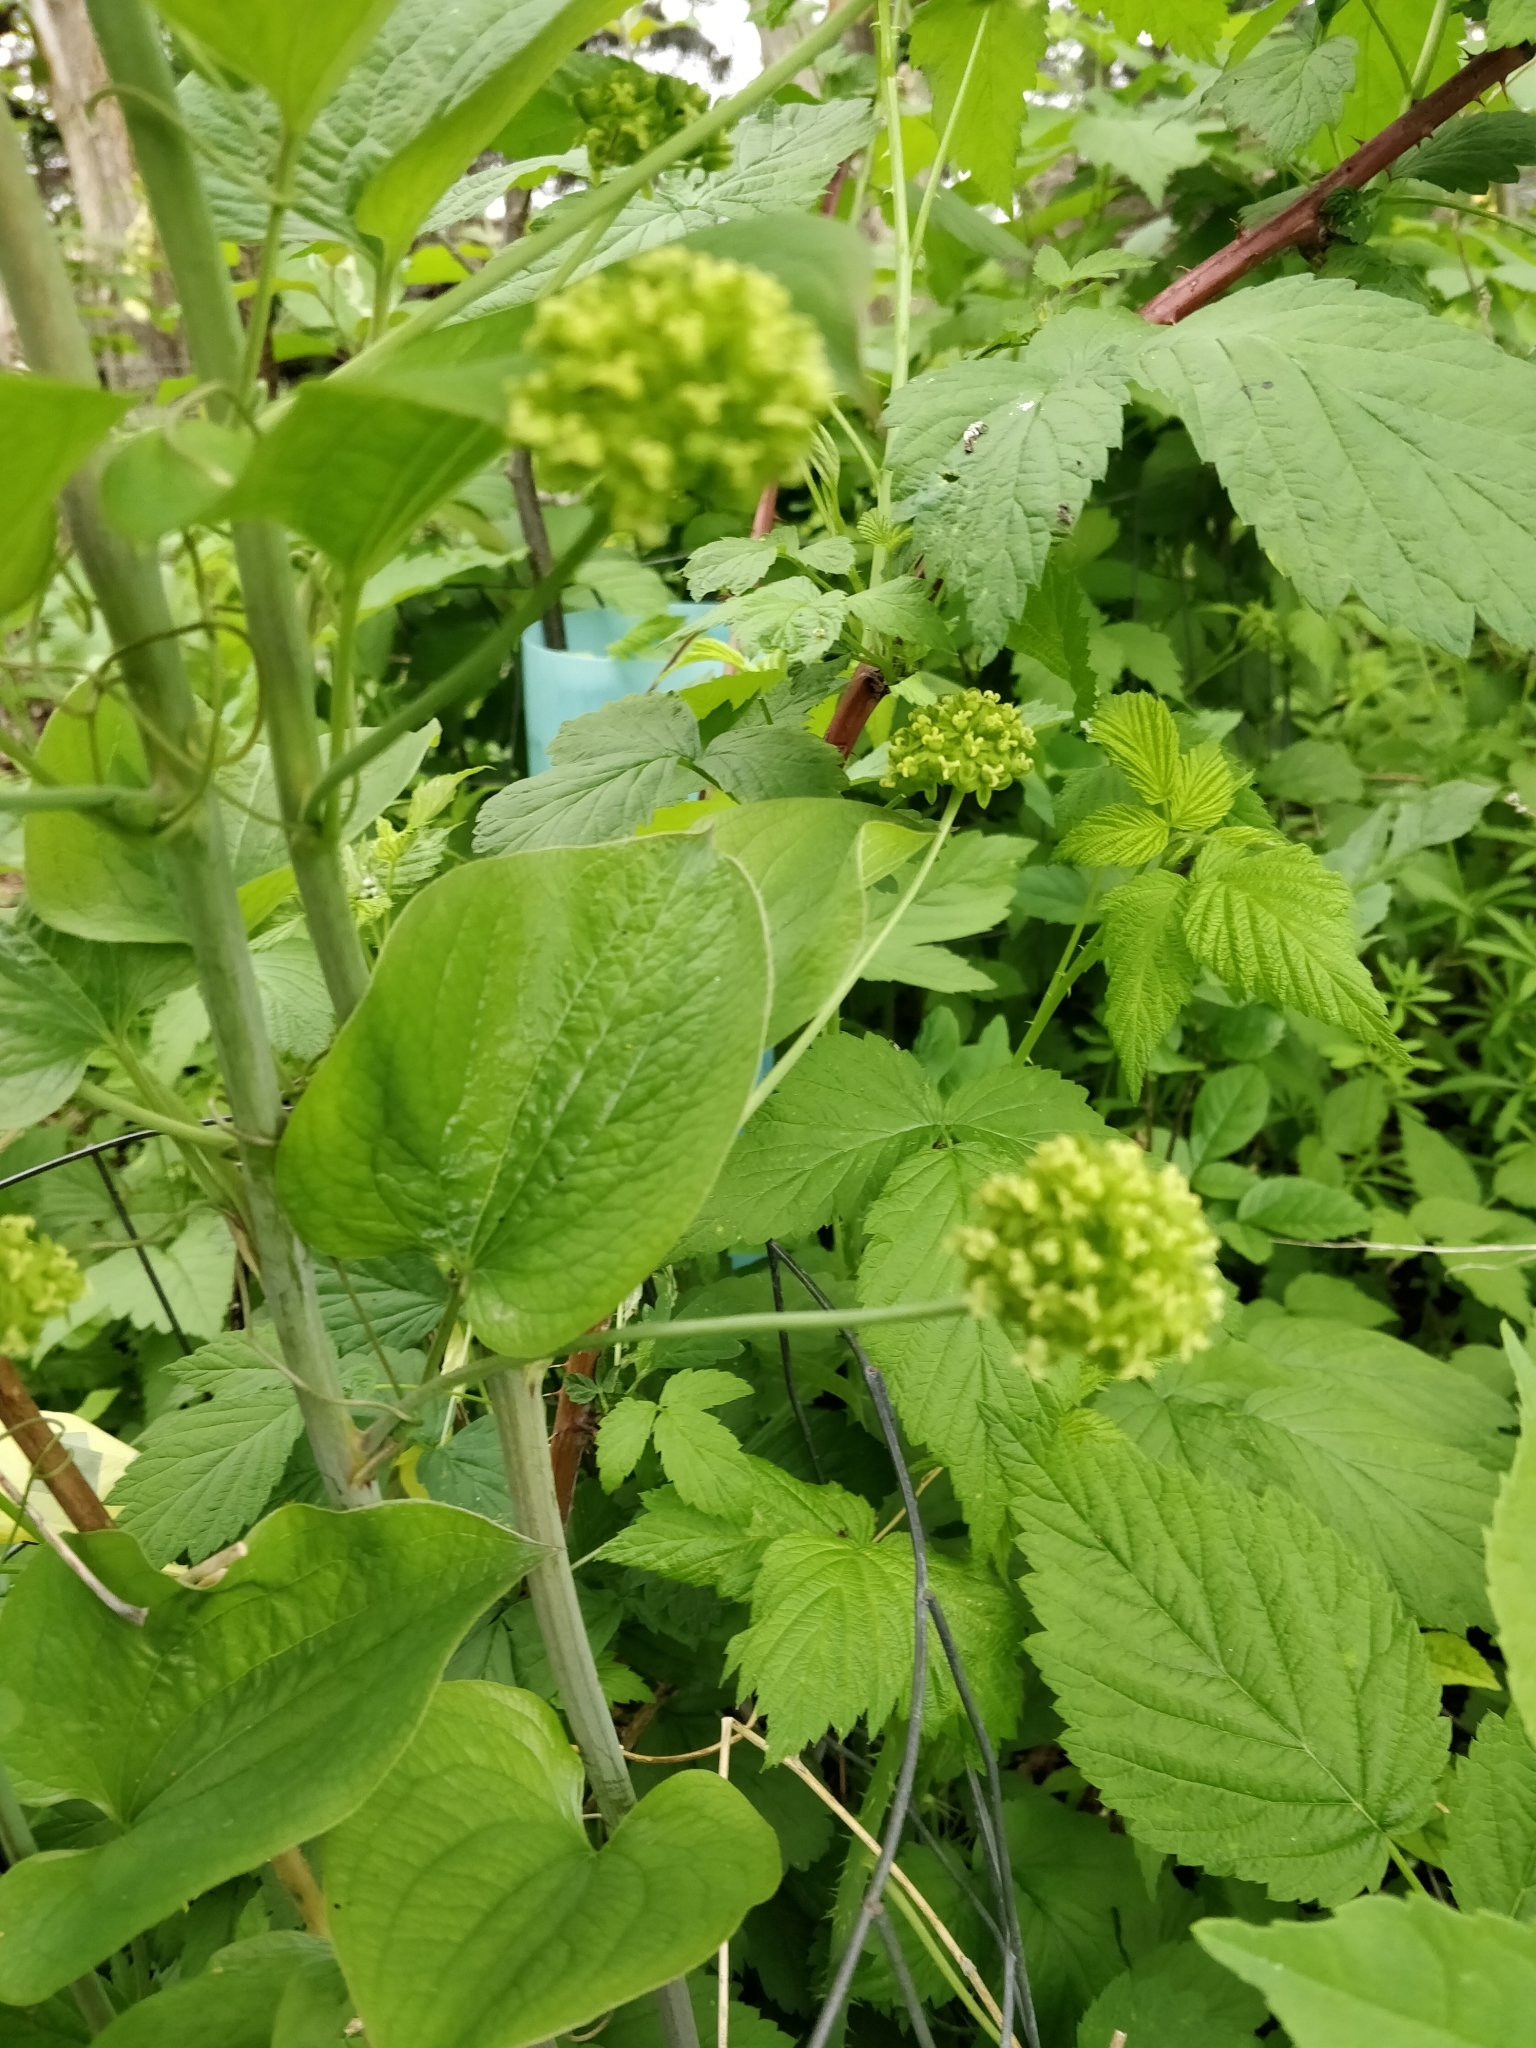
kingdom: Plantae
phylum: Tracheophyta
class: Liliopsida
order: Liliales
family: Smilacaceae
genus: Smilax
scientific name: Smilax lasioneura
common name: Blue ridge carrionflower
